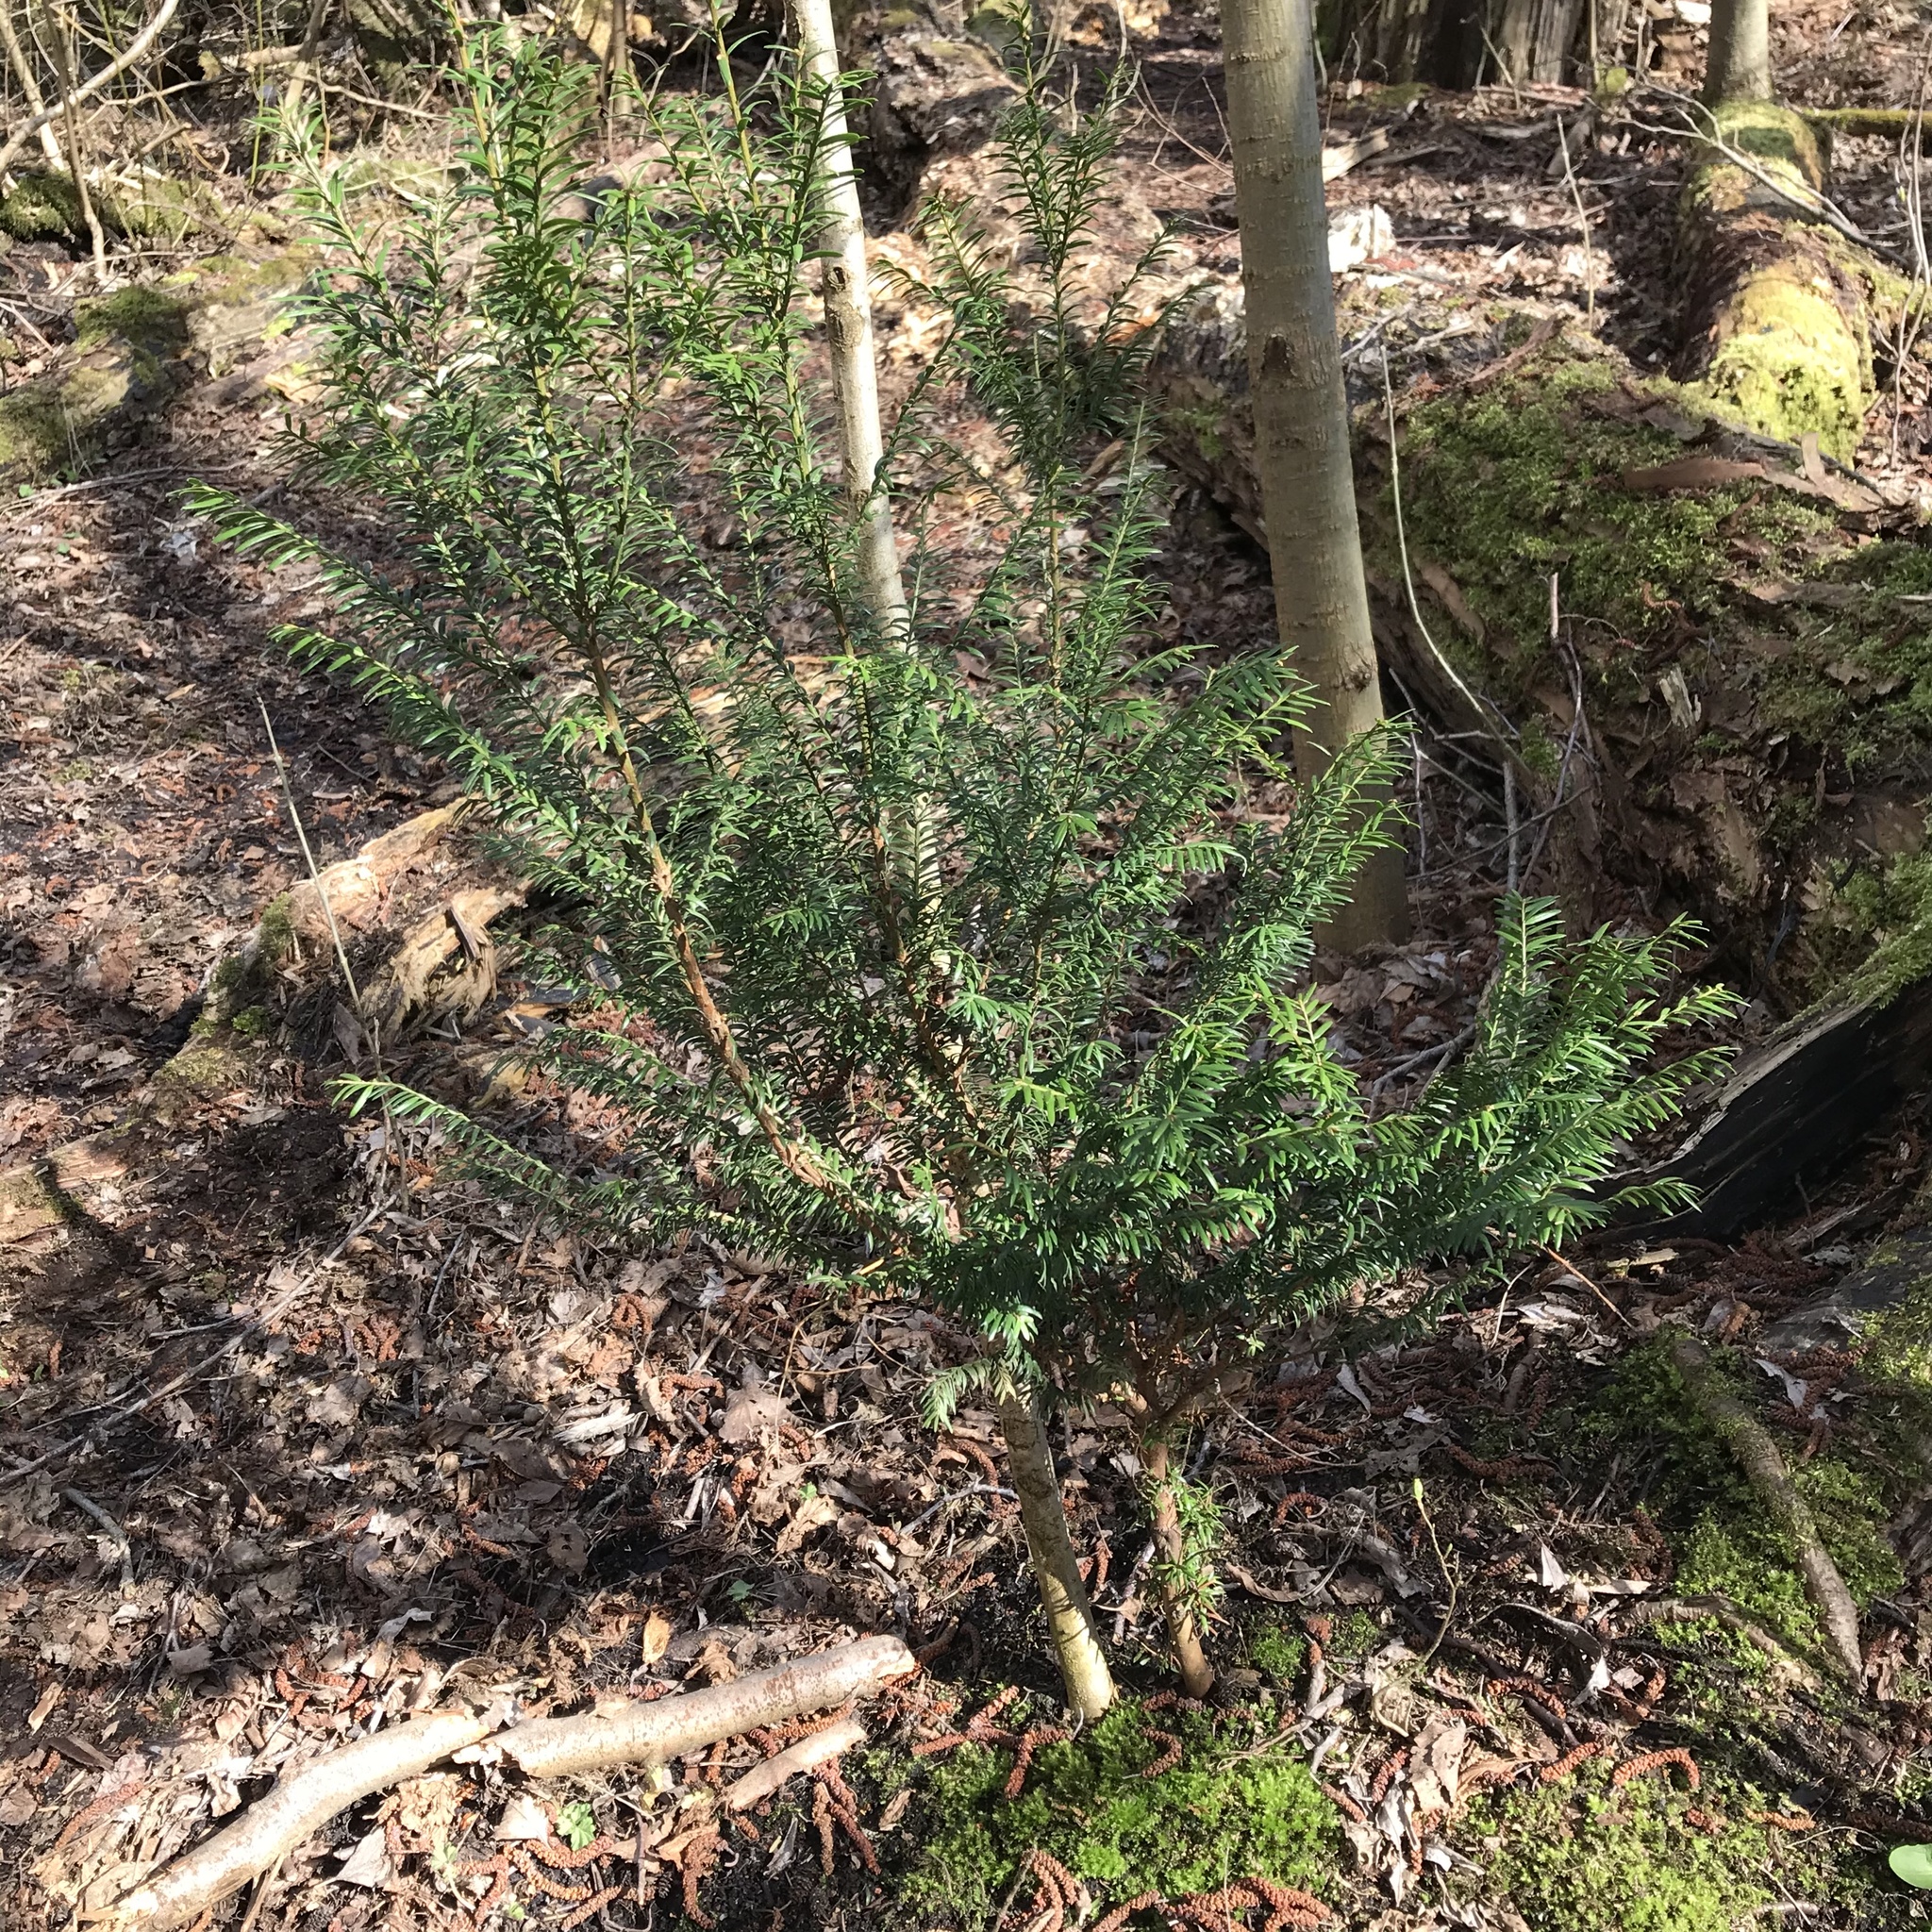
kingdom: Plantae
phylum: Tracheophyta
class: Pinopsida
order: Pinales
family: Taxaceae
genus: Taxus
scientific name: Taxus baccata
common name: Yew
